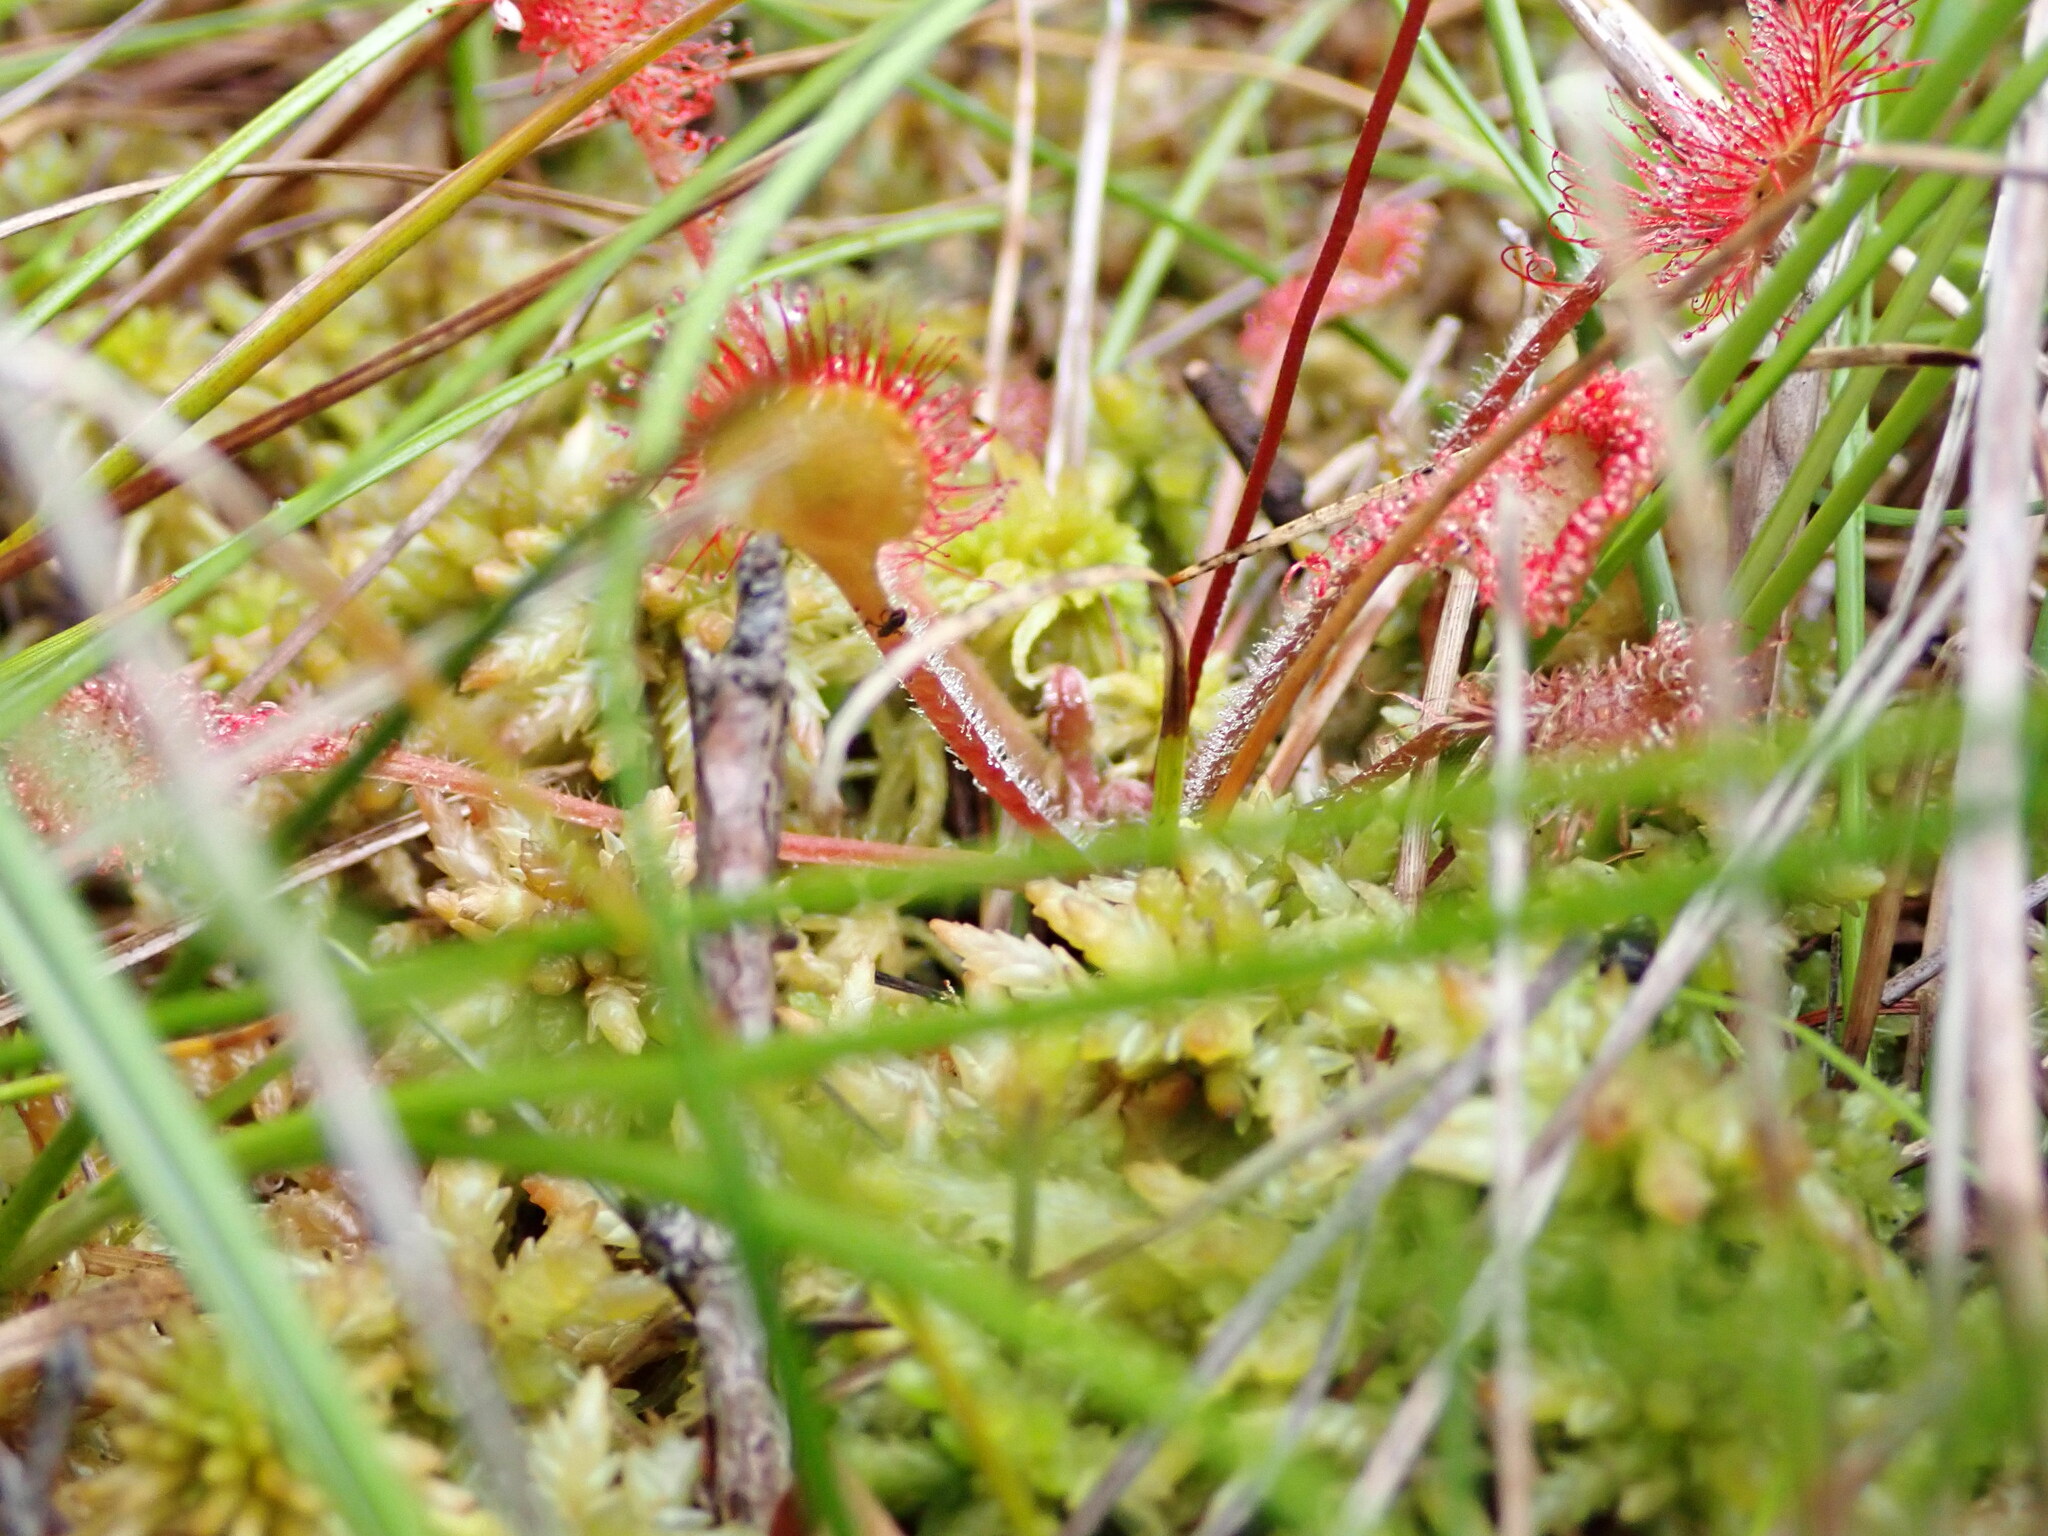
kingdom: Plantae
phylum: Tracheophyta
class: Magnoliopsida
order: Caryophyllales
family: Droseraceae
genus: Drosera
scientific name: Drosera rotundifolia
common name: Round-leaved sundew
